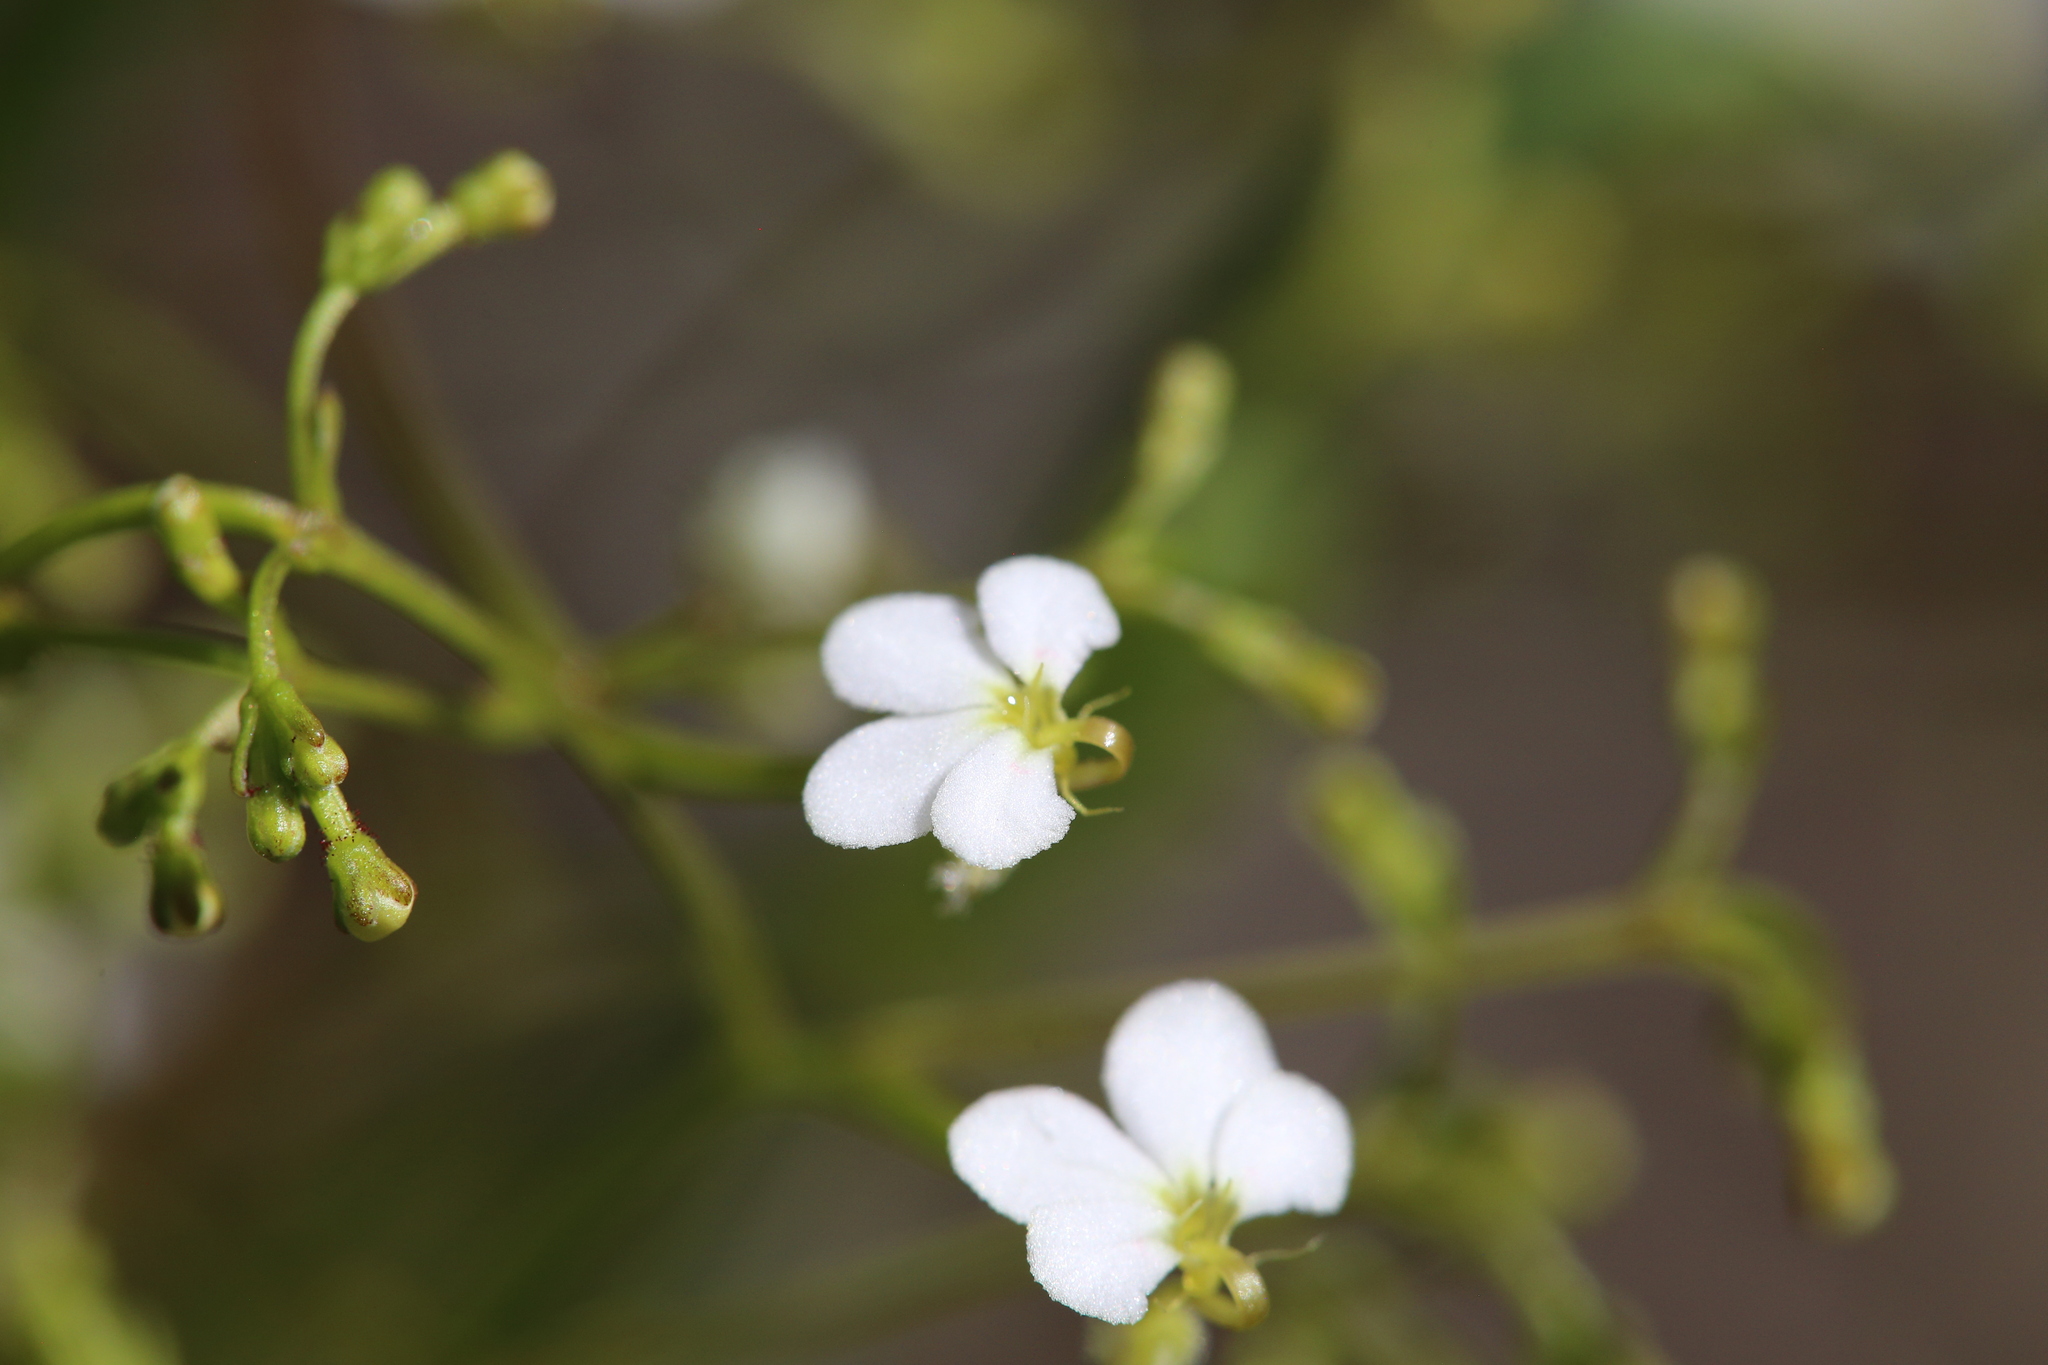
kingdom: Plantae
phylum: Tracheophyta
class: Magnoliopsida
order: Asterales
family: Stylidiaceae
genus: Stylidium
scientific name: Stylidium divaricatum
